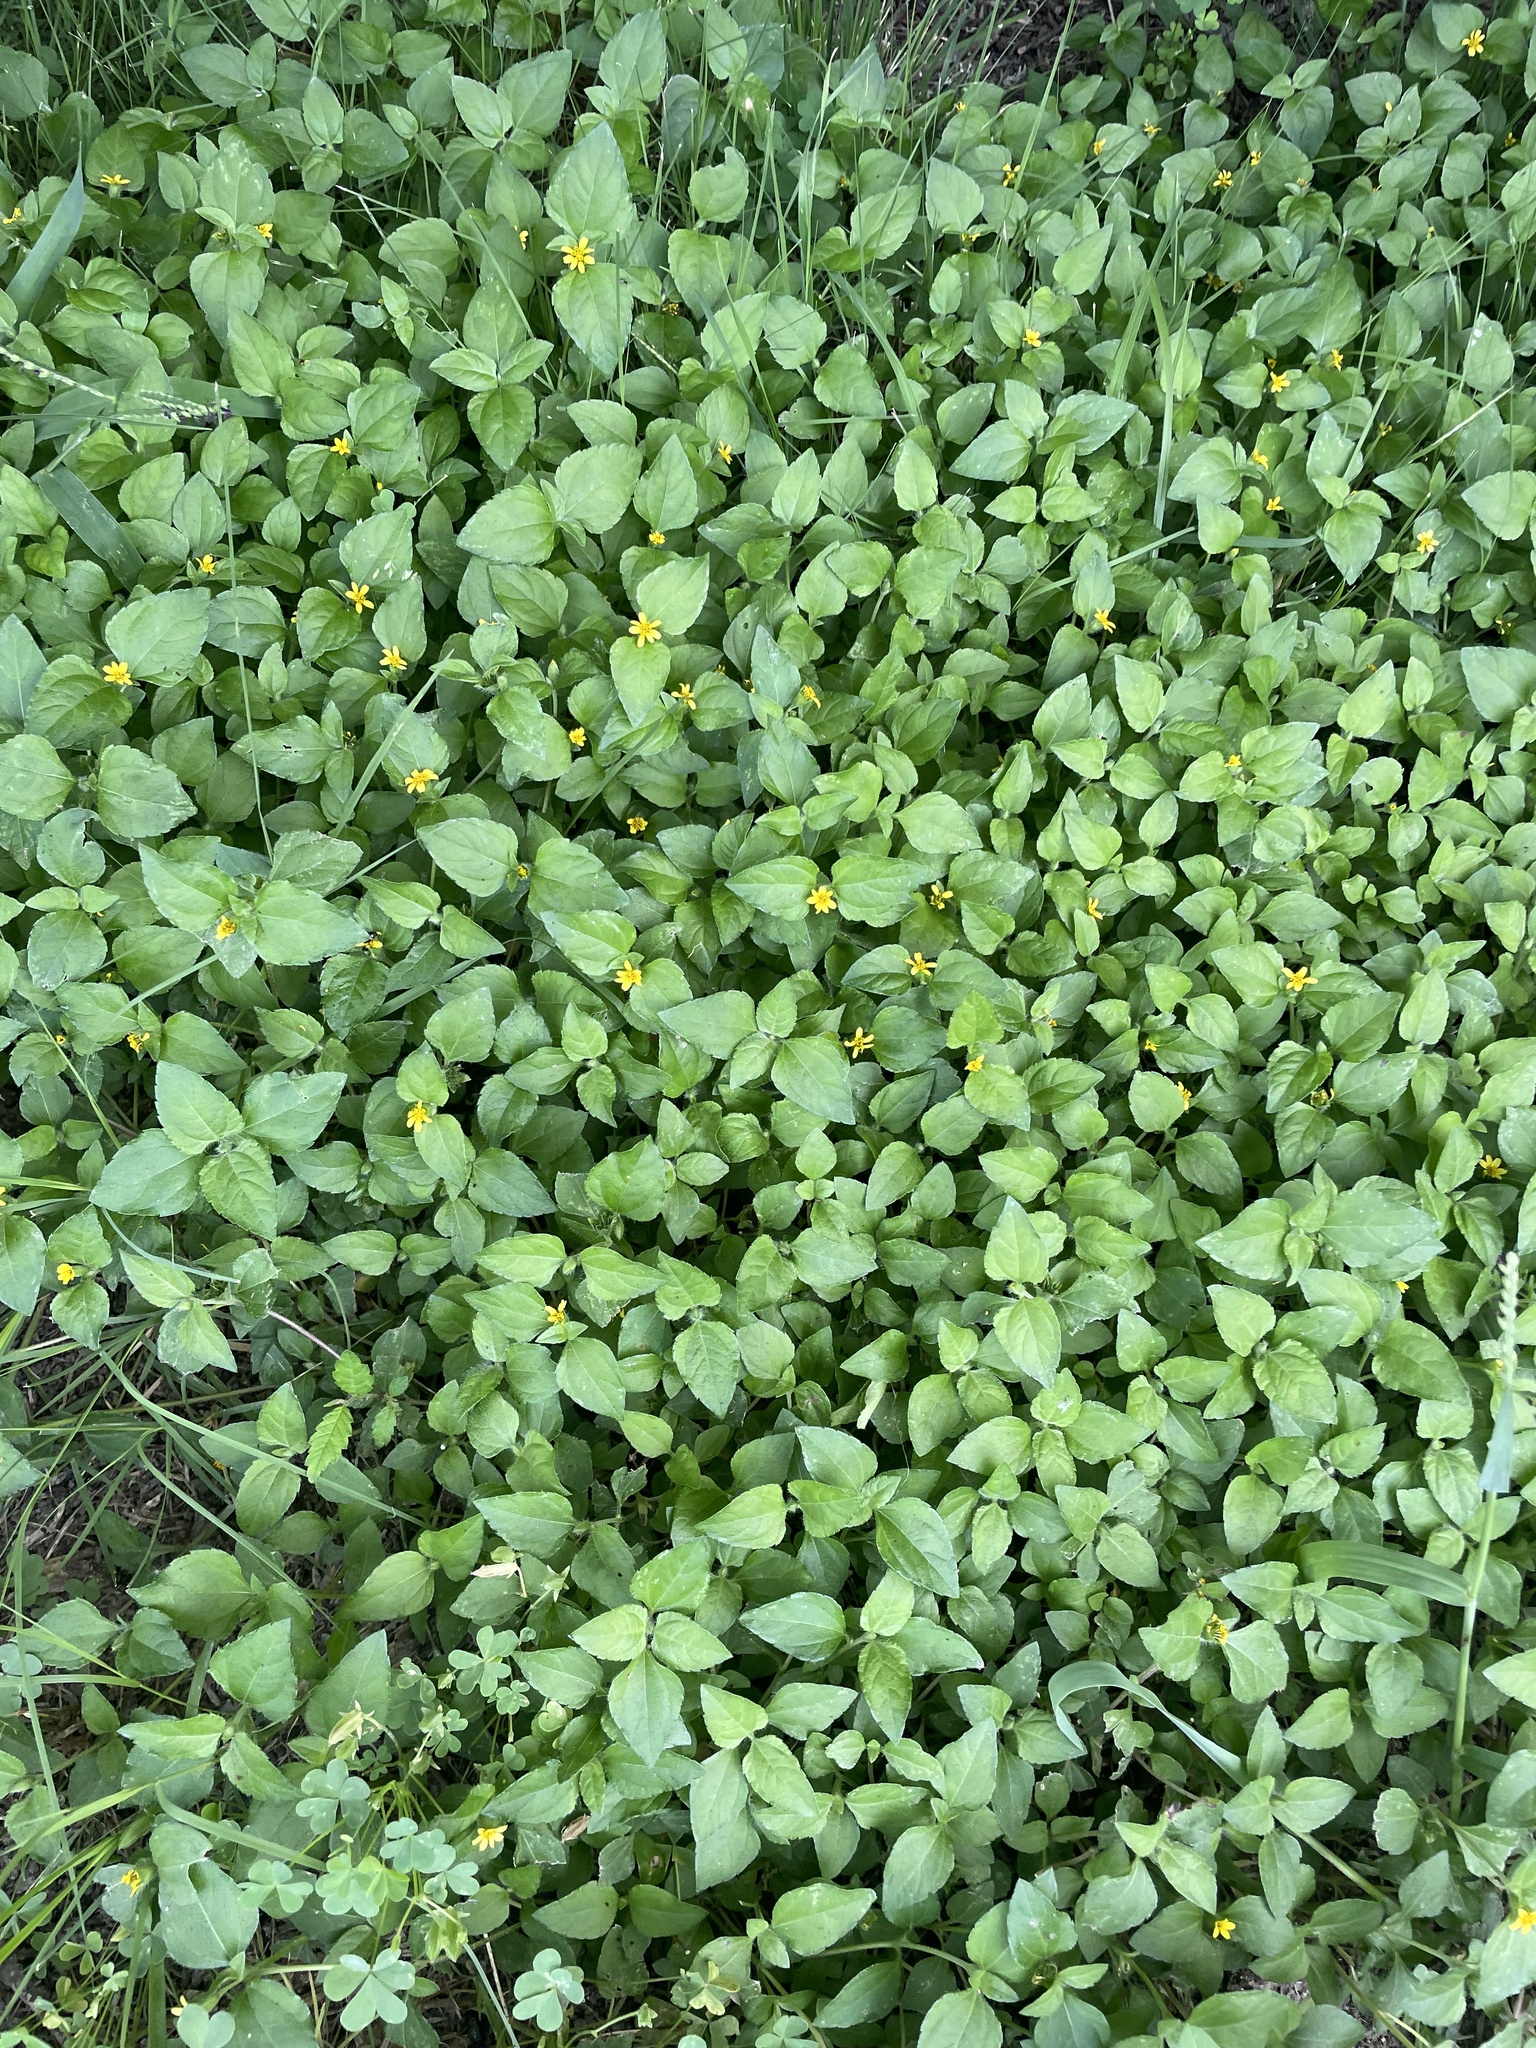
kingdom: Plantae
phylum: Tracheophyta
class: Magnoliopsida
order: Asterales
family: Asteraceae
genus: Calyptocarpus
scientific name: Calyptocarpus vialis
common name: Straggler daisy
